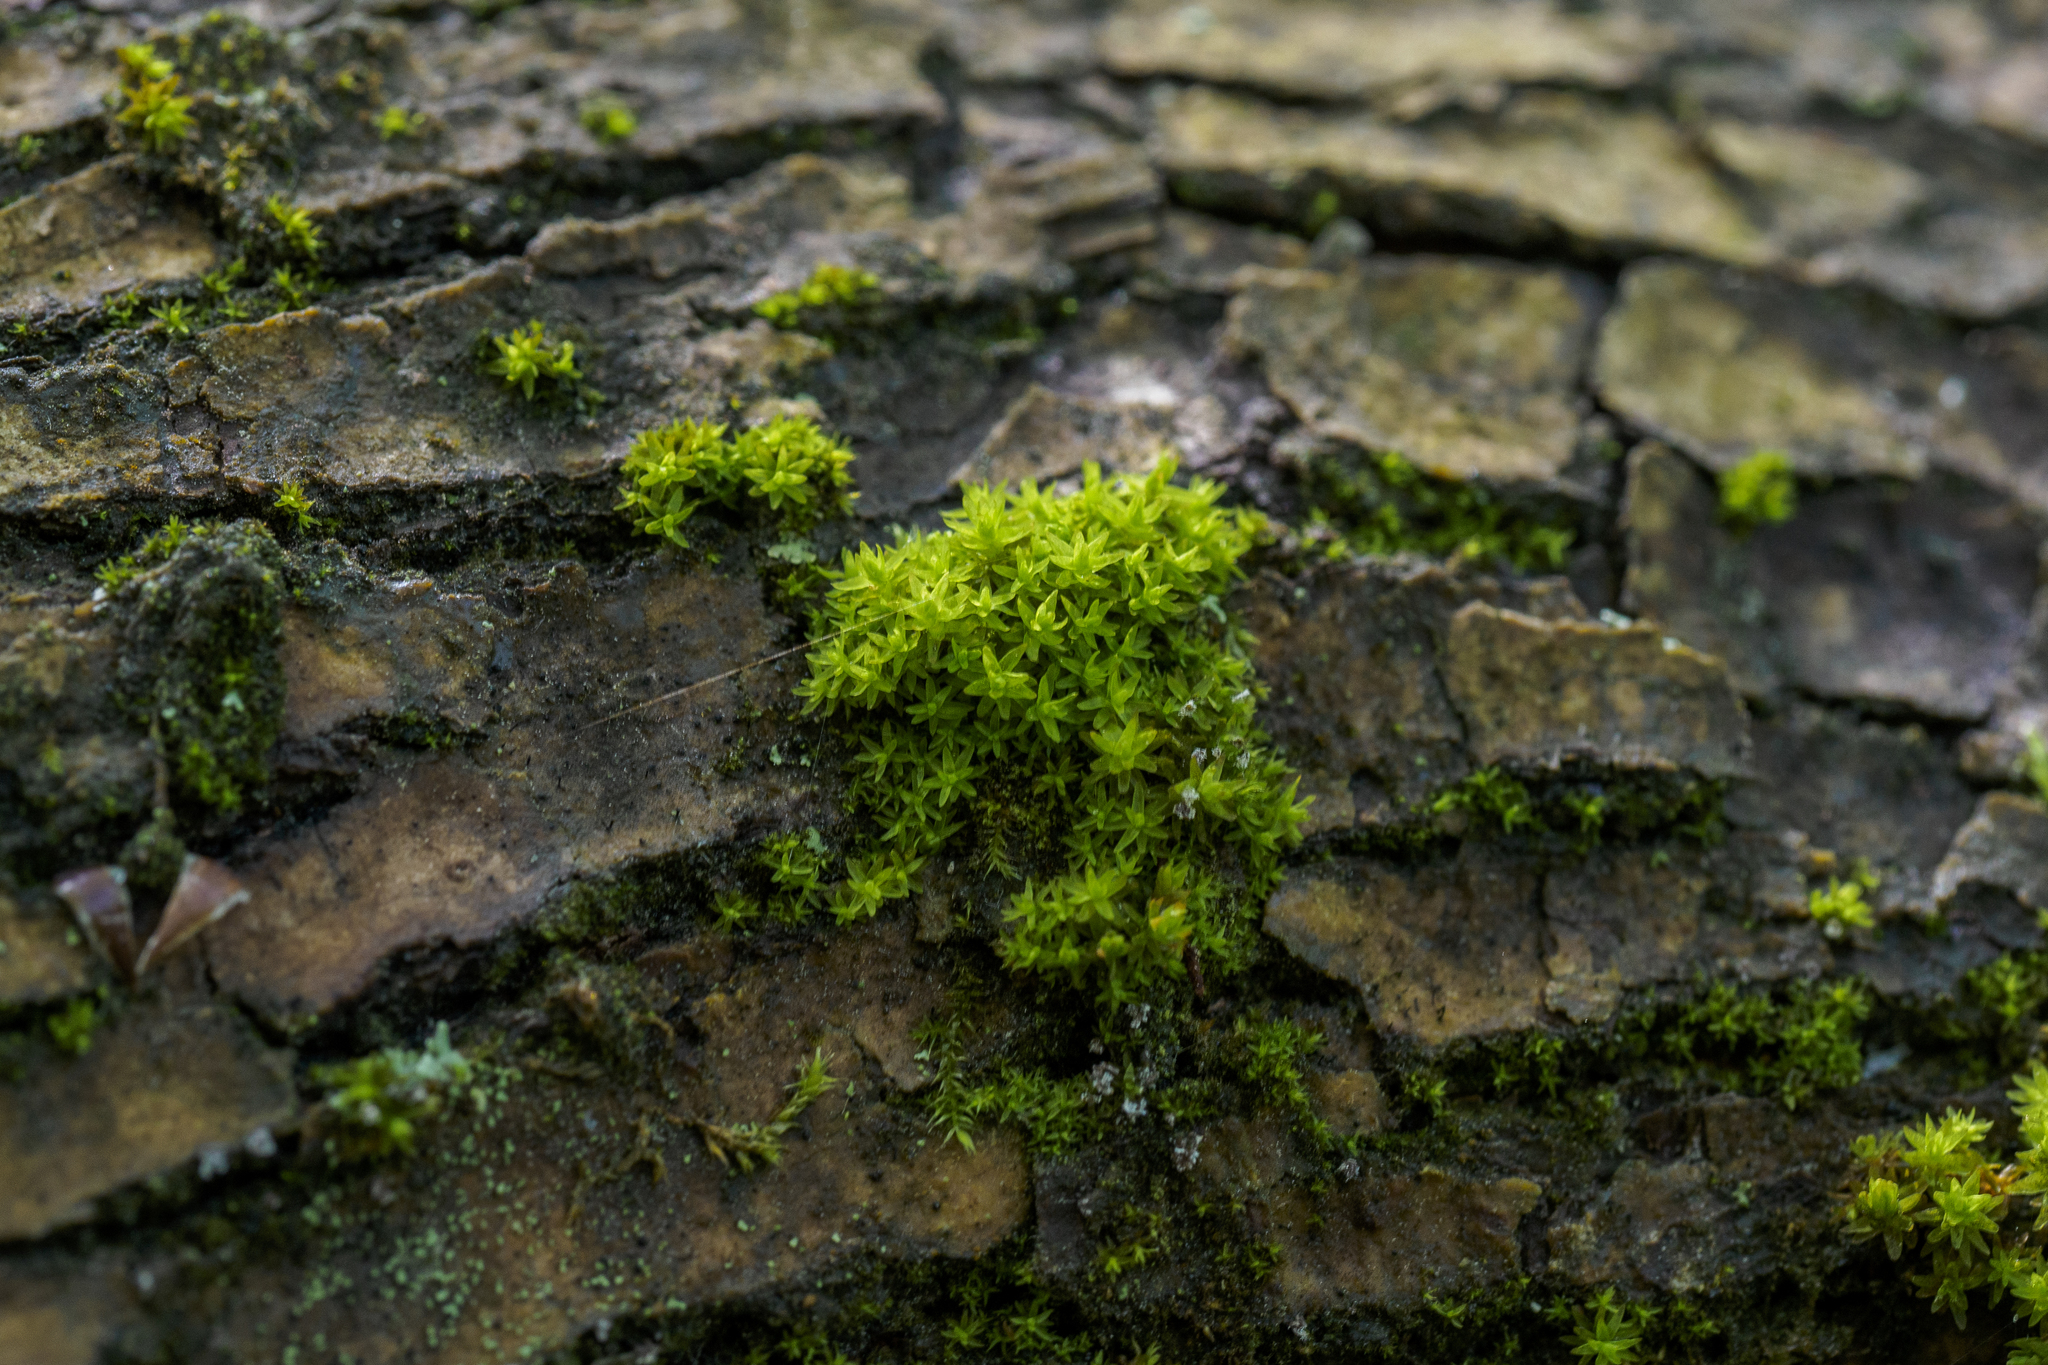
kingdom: Plantae
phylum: Bryophyta
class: Bryopsida
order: Orthotrichales
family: Orthotrichaceae
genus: Nyholmiella
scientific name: Nyholmiella obtusifolia
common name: Blunt-leaved bristle-moss
